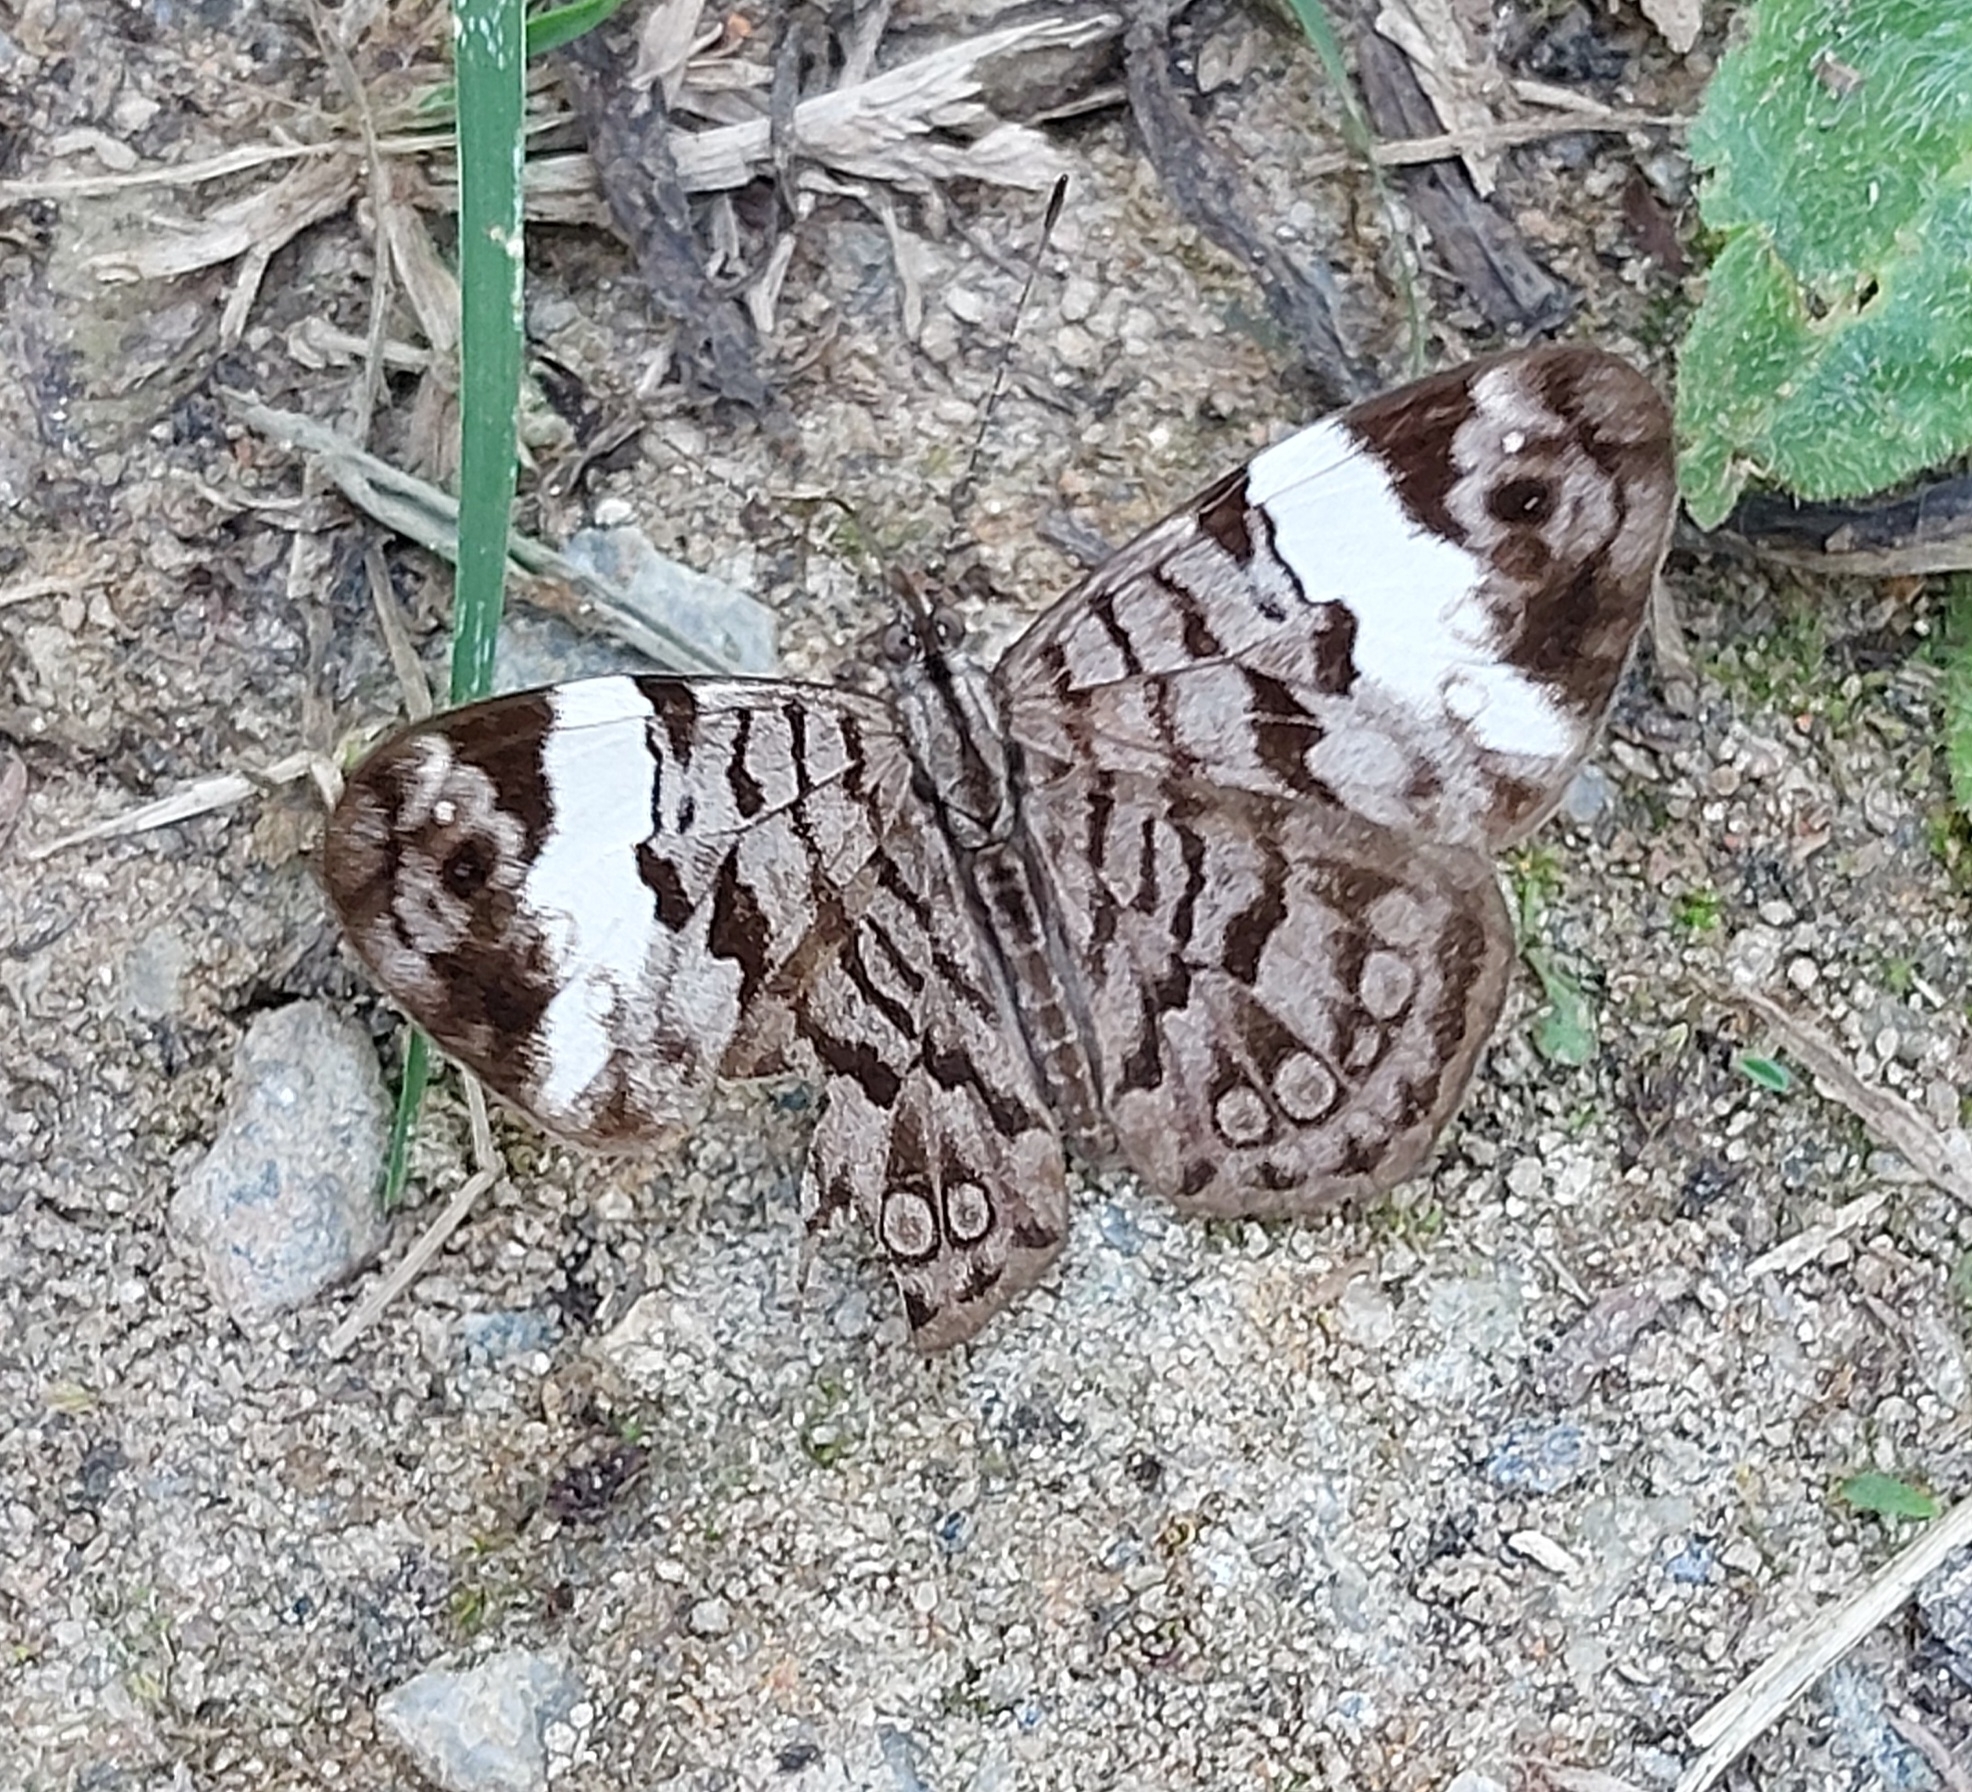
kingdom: Animalia
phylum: Arthropoda
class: Insecta
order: Lepidoptera
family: Nymphalidae
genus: Ectima
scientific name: Ectima thecla
